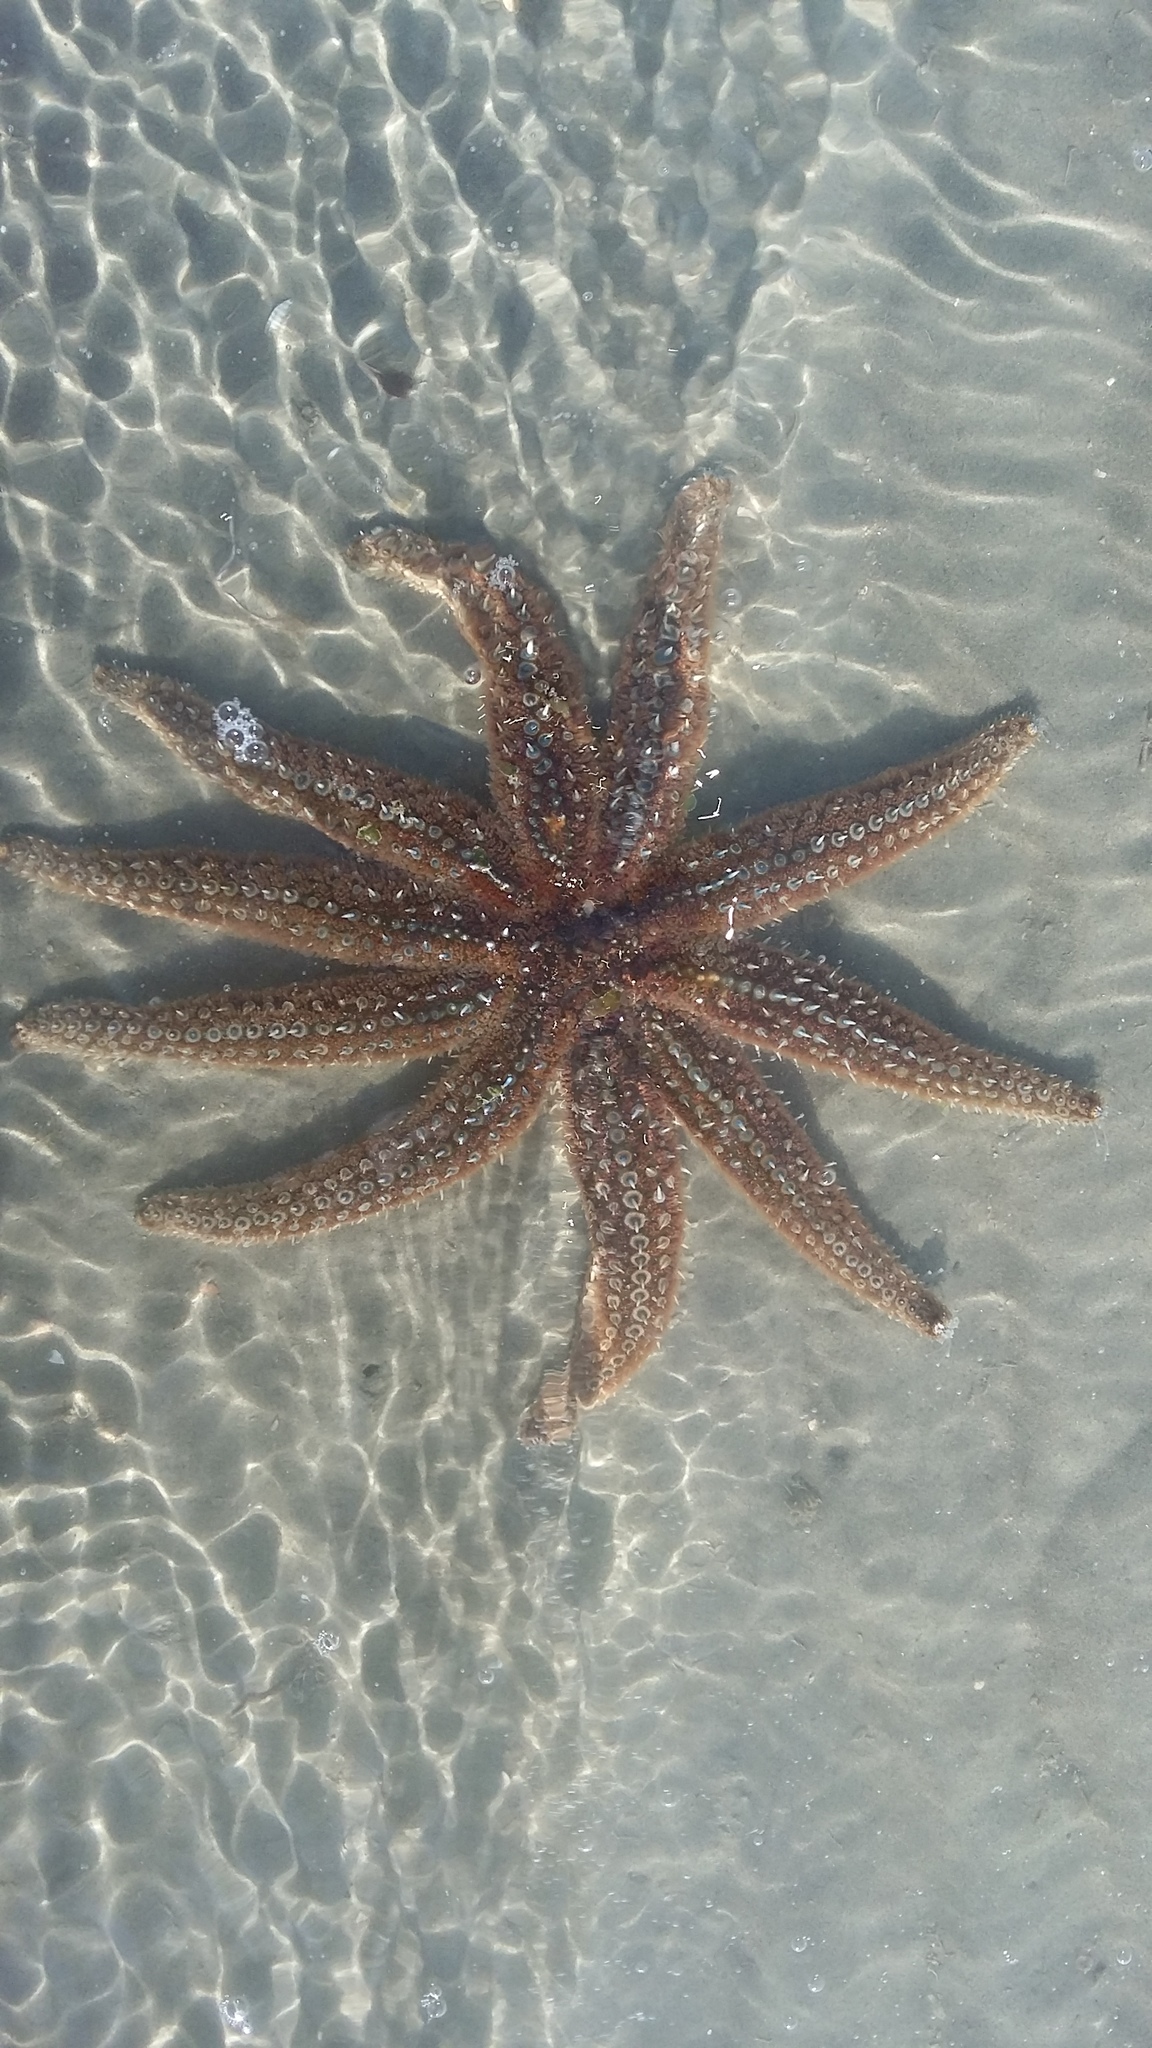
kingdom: Animalia
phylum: Echinodermata
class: Asteroidea
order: Forcipulatida
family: Asteriidae
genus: Coscinasterias
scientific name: Coscinasterias muricata
